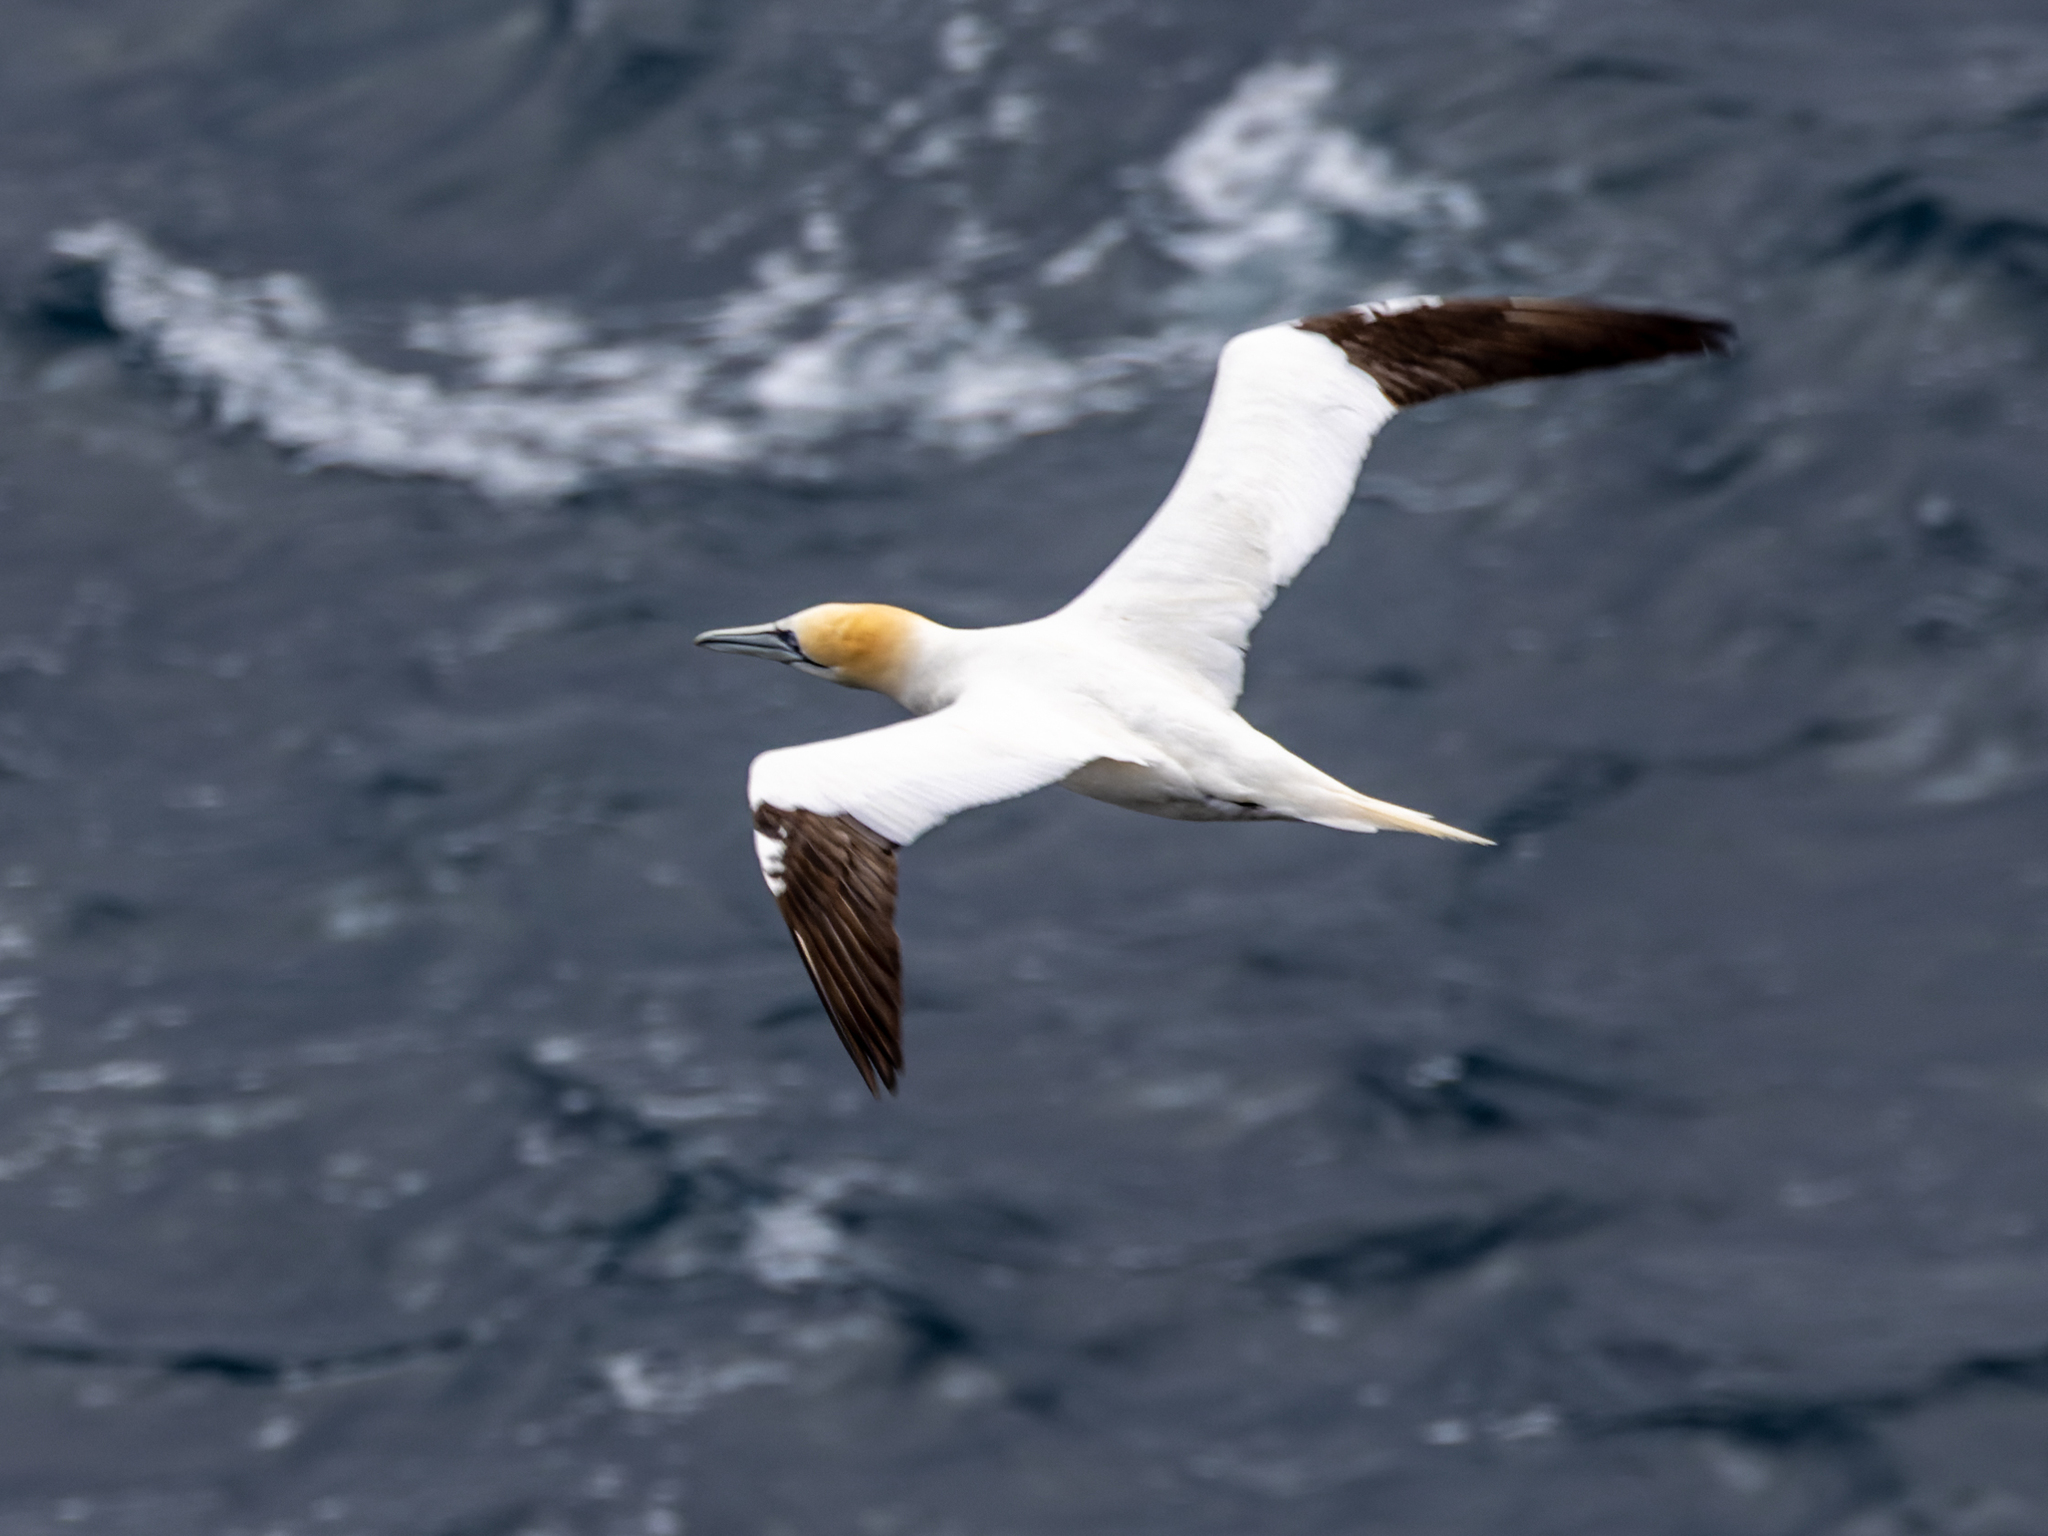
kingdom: Animalia
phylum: Chordata
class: Aves
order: Suliformes
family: Sulidae
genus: Morus
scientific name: Morus bassanus
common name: Northern gannet
